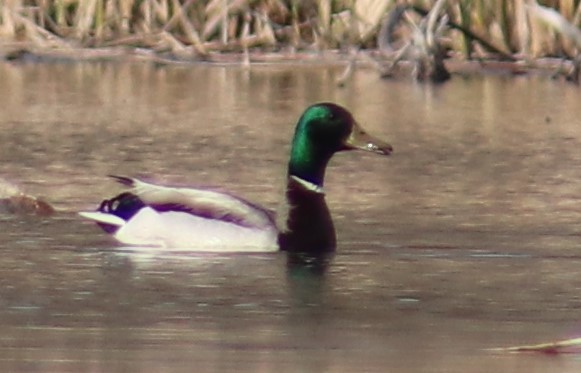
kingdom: Animalia
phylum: Chordata
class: Aves
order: Anseriformes
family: Anatidae
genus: Anas
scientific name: Anas platyrhynchos
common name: Mallard
